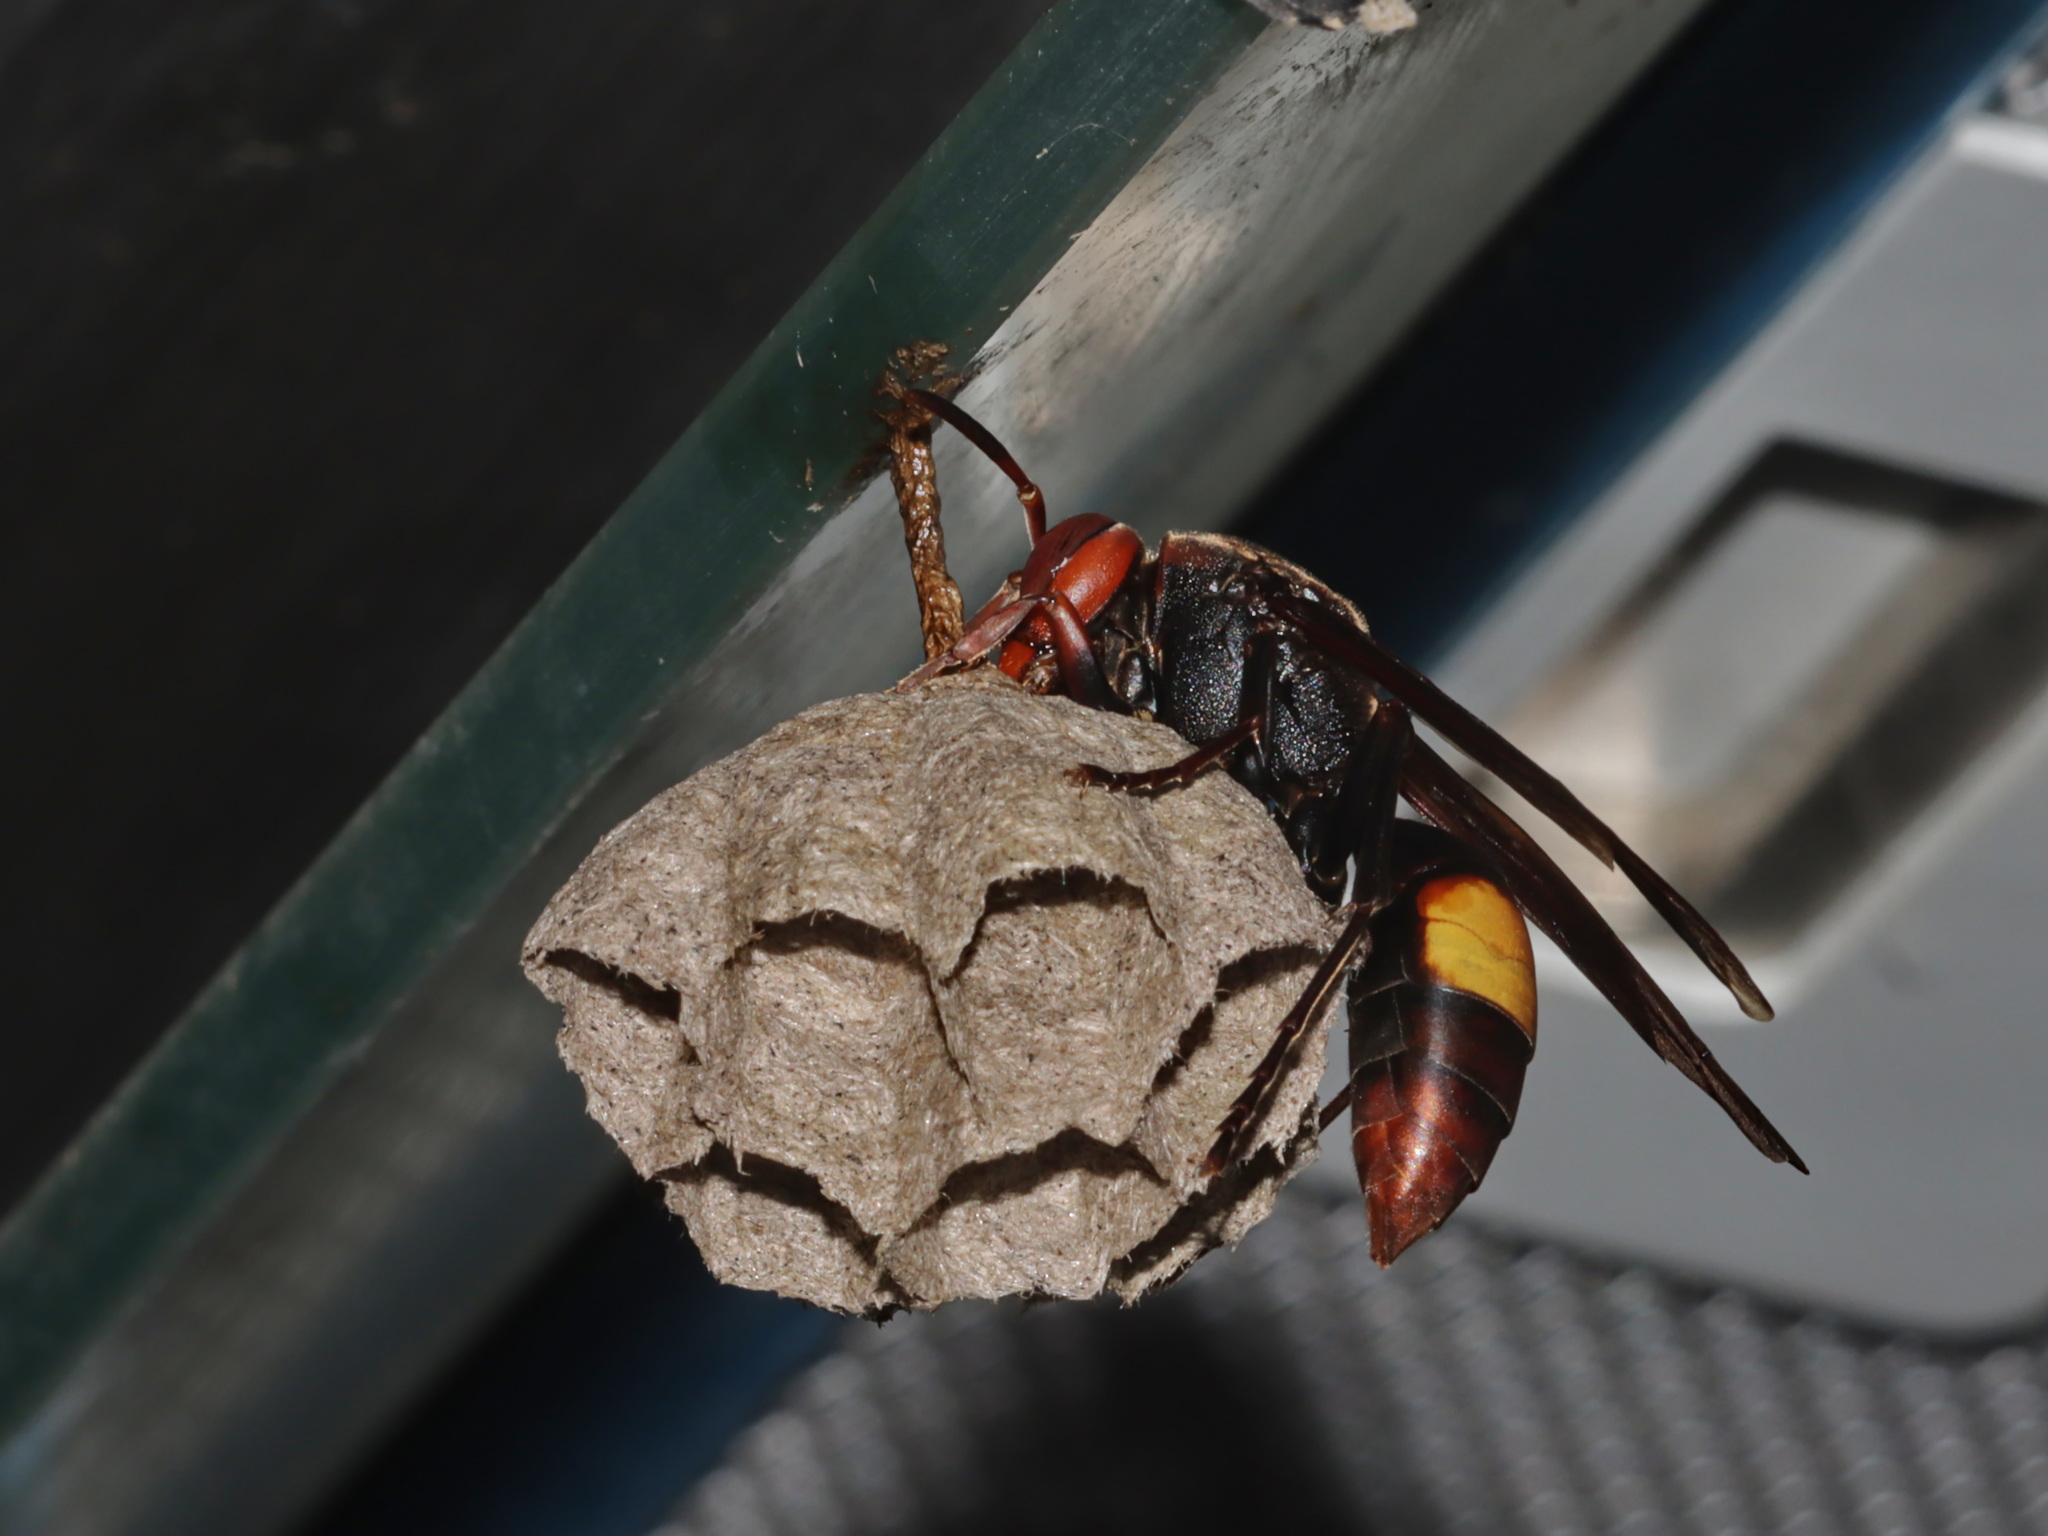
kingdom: Animalia
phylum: Arthropoda
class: Insecta
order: Hymenoptera
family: Eumenidae
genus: Polistes
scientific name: Polistes sagittarius
